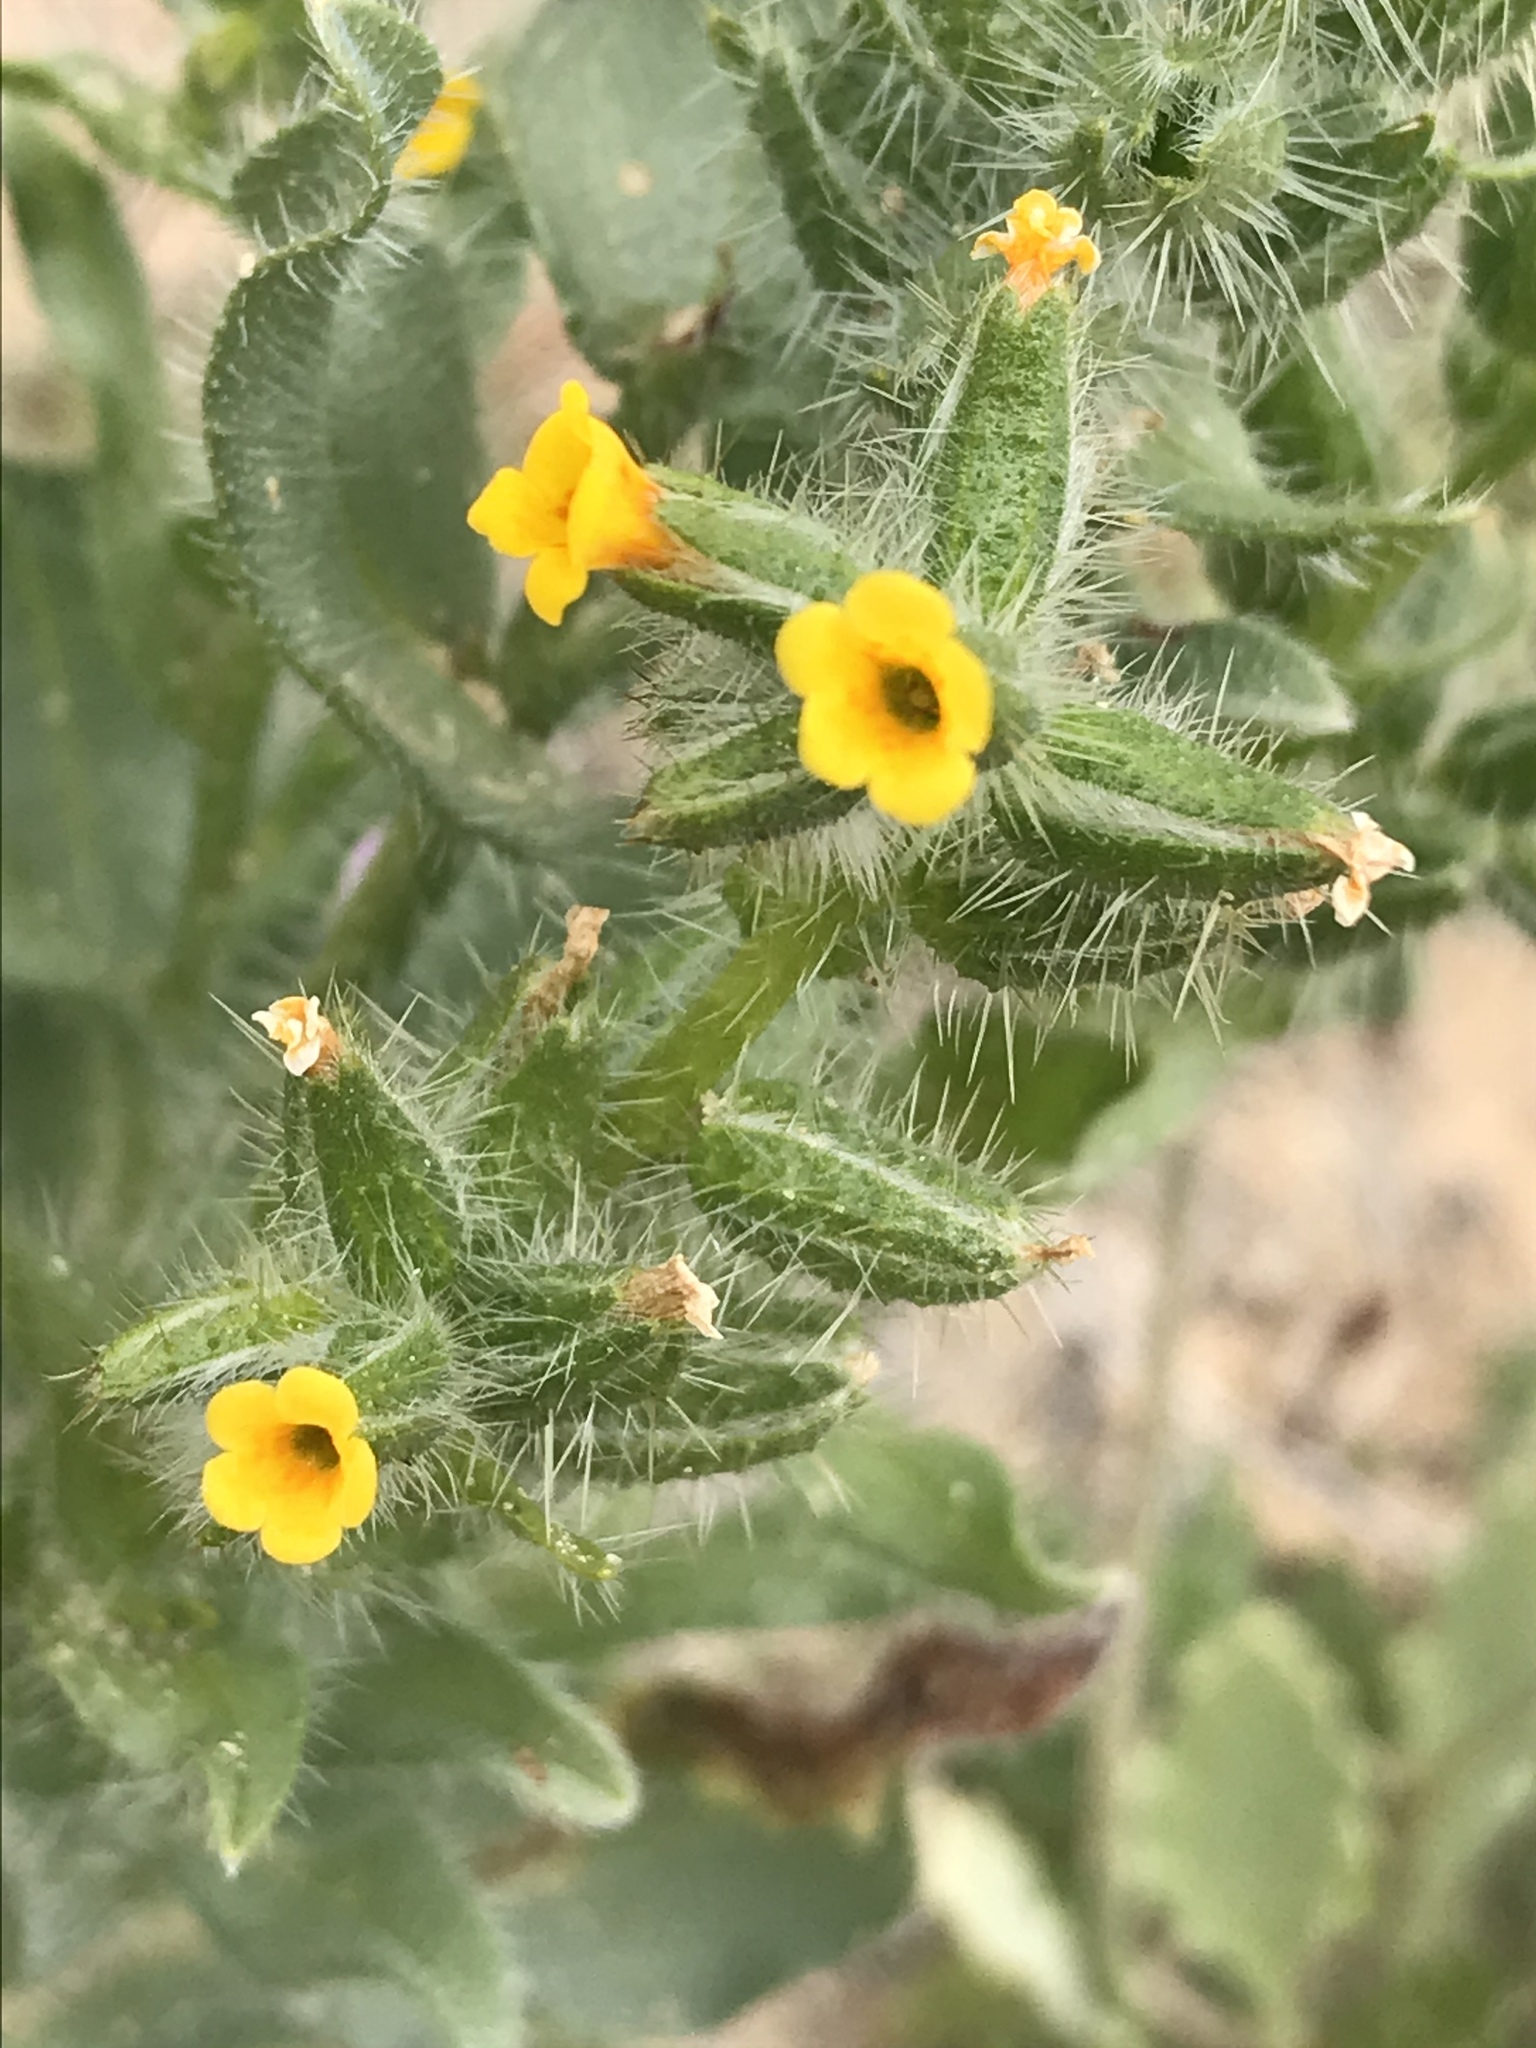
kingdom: Plantae
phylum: Tracheophyta
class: Magnoliopsida
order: Boraginales
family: Boraginaceae
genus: Amsinckia
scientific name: Amsinckia tessellata
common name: Tessellate fiddleneck
